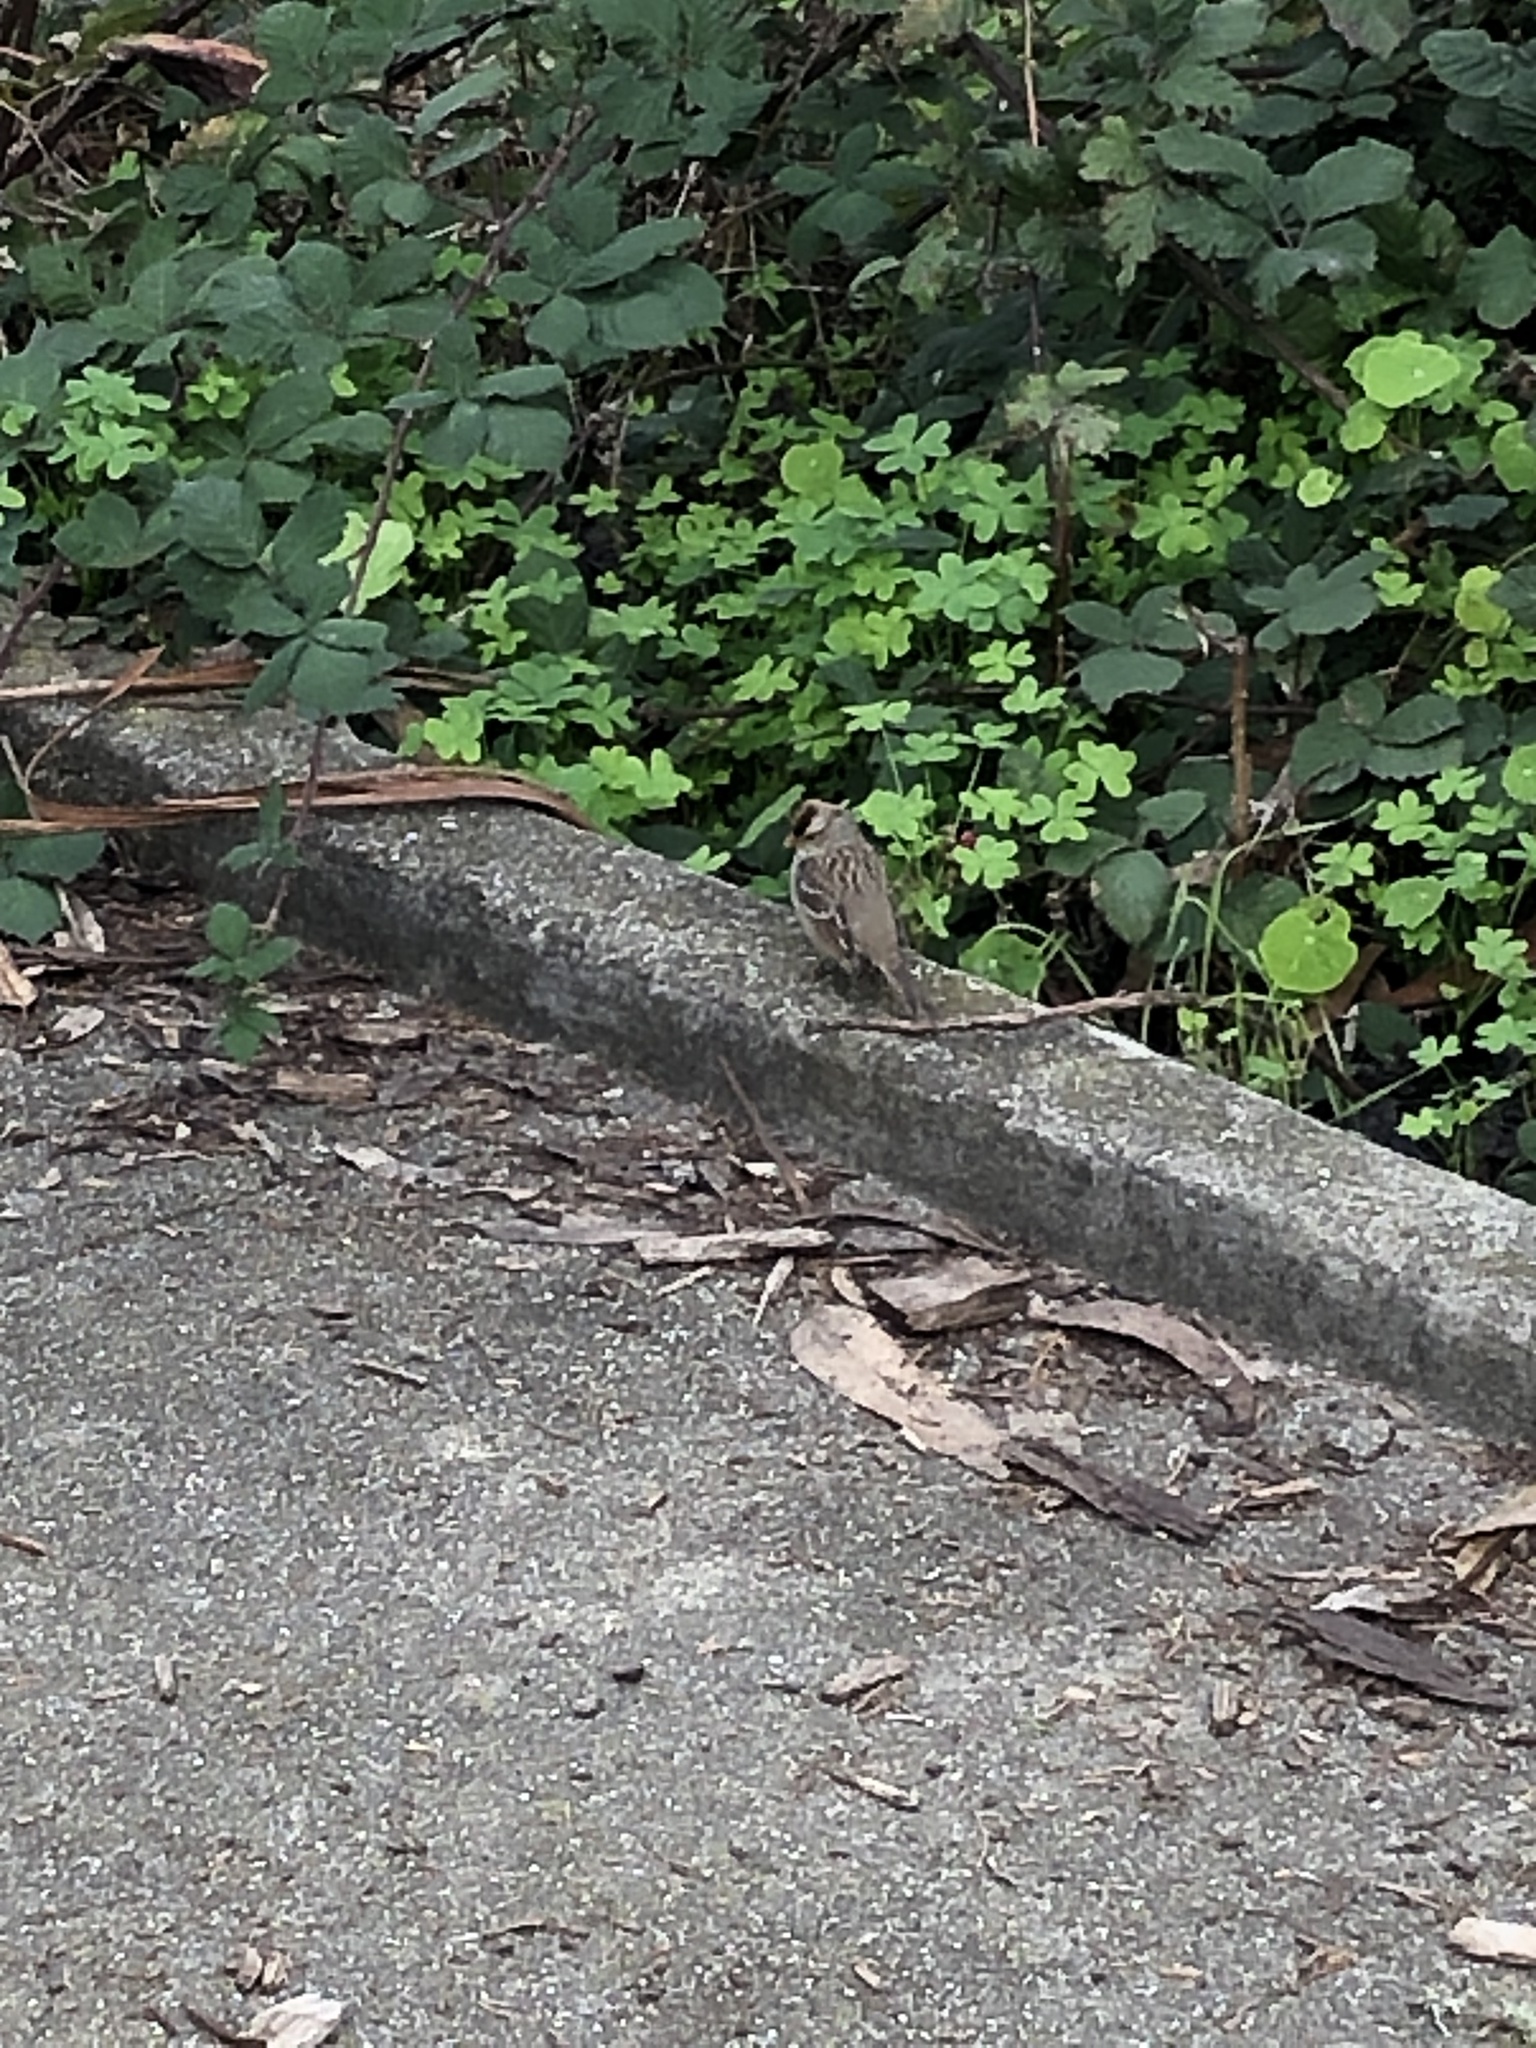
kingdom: Animalia
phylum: Chordata
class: Aves
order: Passeriformes
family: Passerellidae
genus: Zonotrichia
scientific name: Zonotrichia leucophrys
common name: White-crowned sparrow
